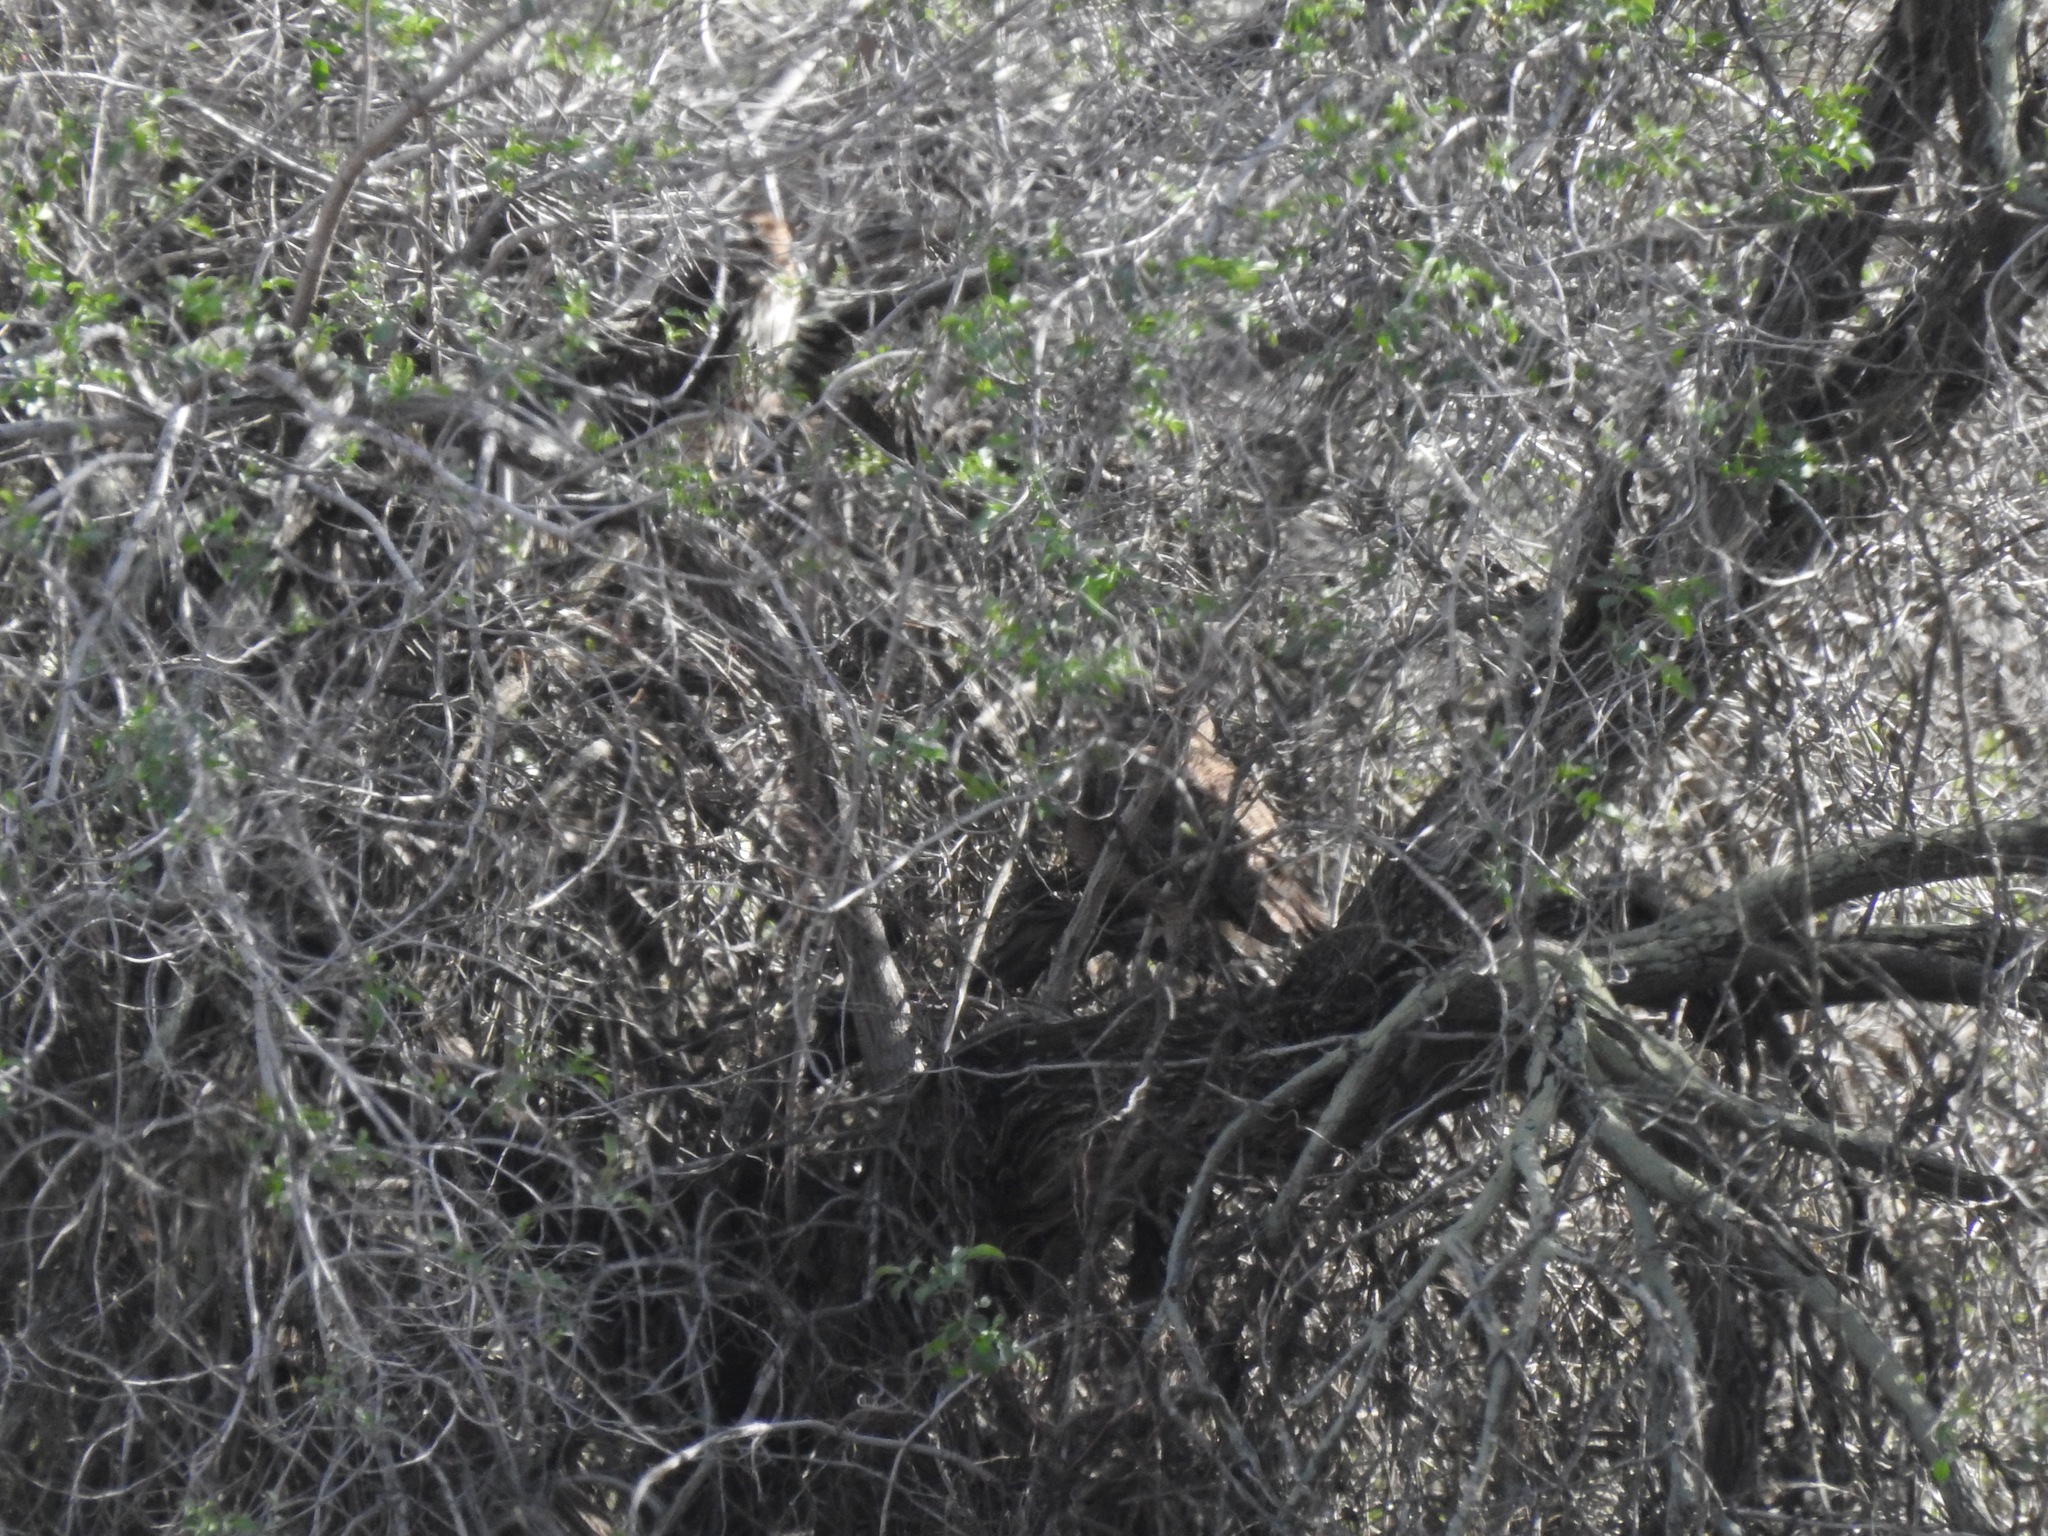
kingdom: Animalia
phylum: Chordata
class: Aves
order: Accipitriformes
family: Accipitridae
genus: Buteo
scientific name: Buteo jamaicensis
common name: Red-tailed hawk
